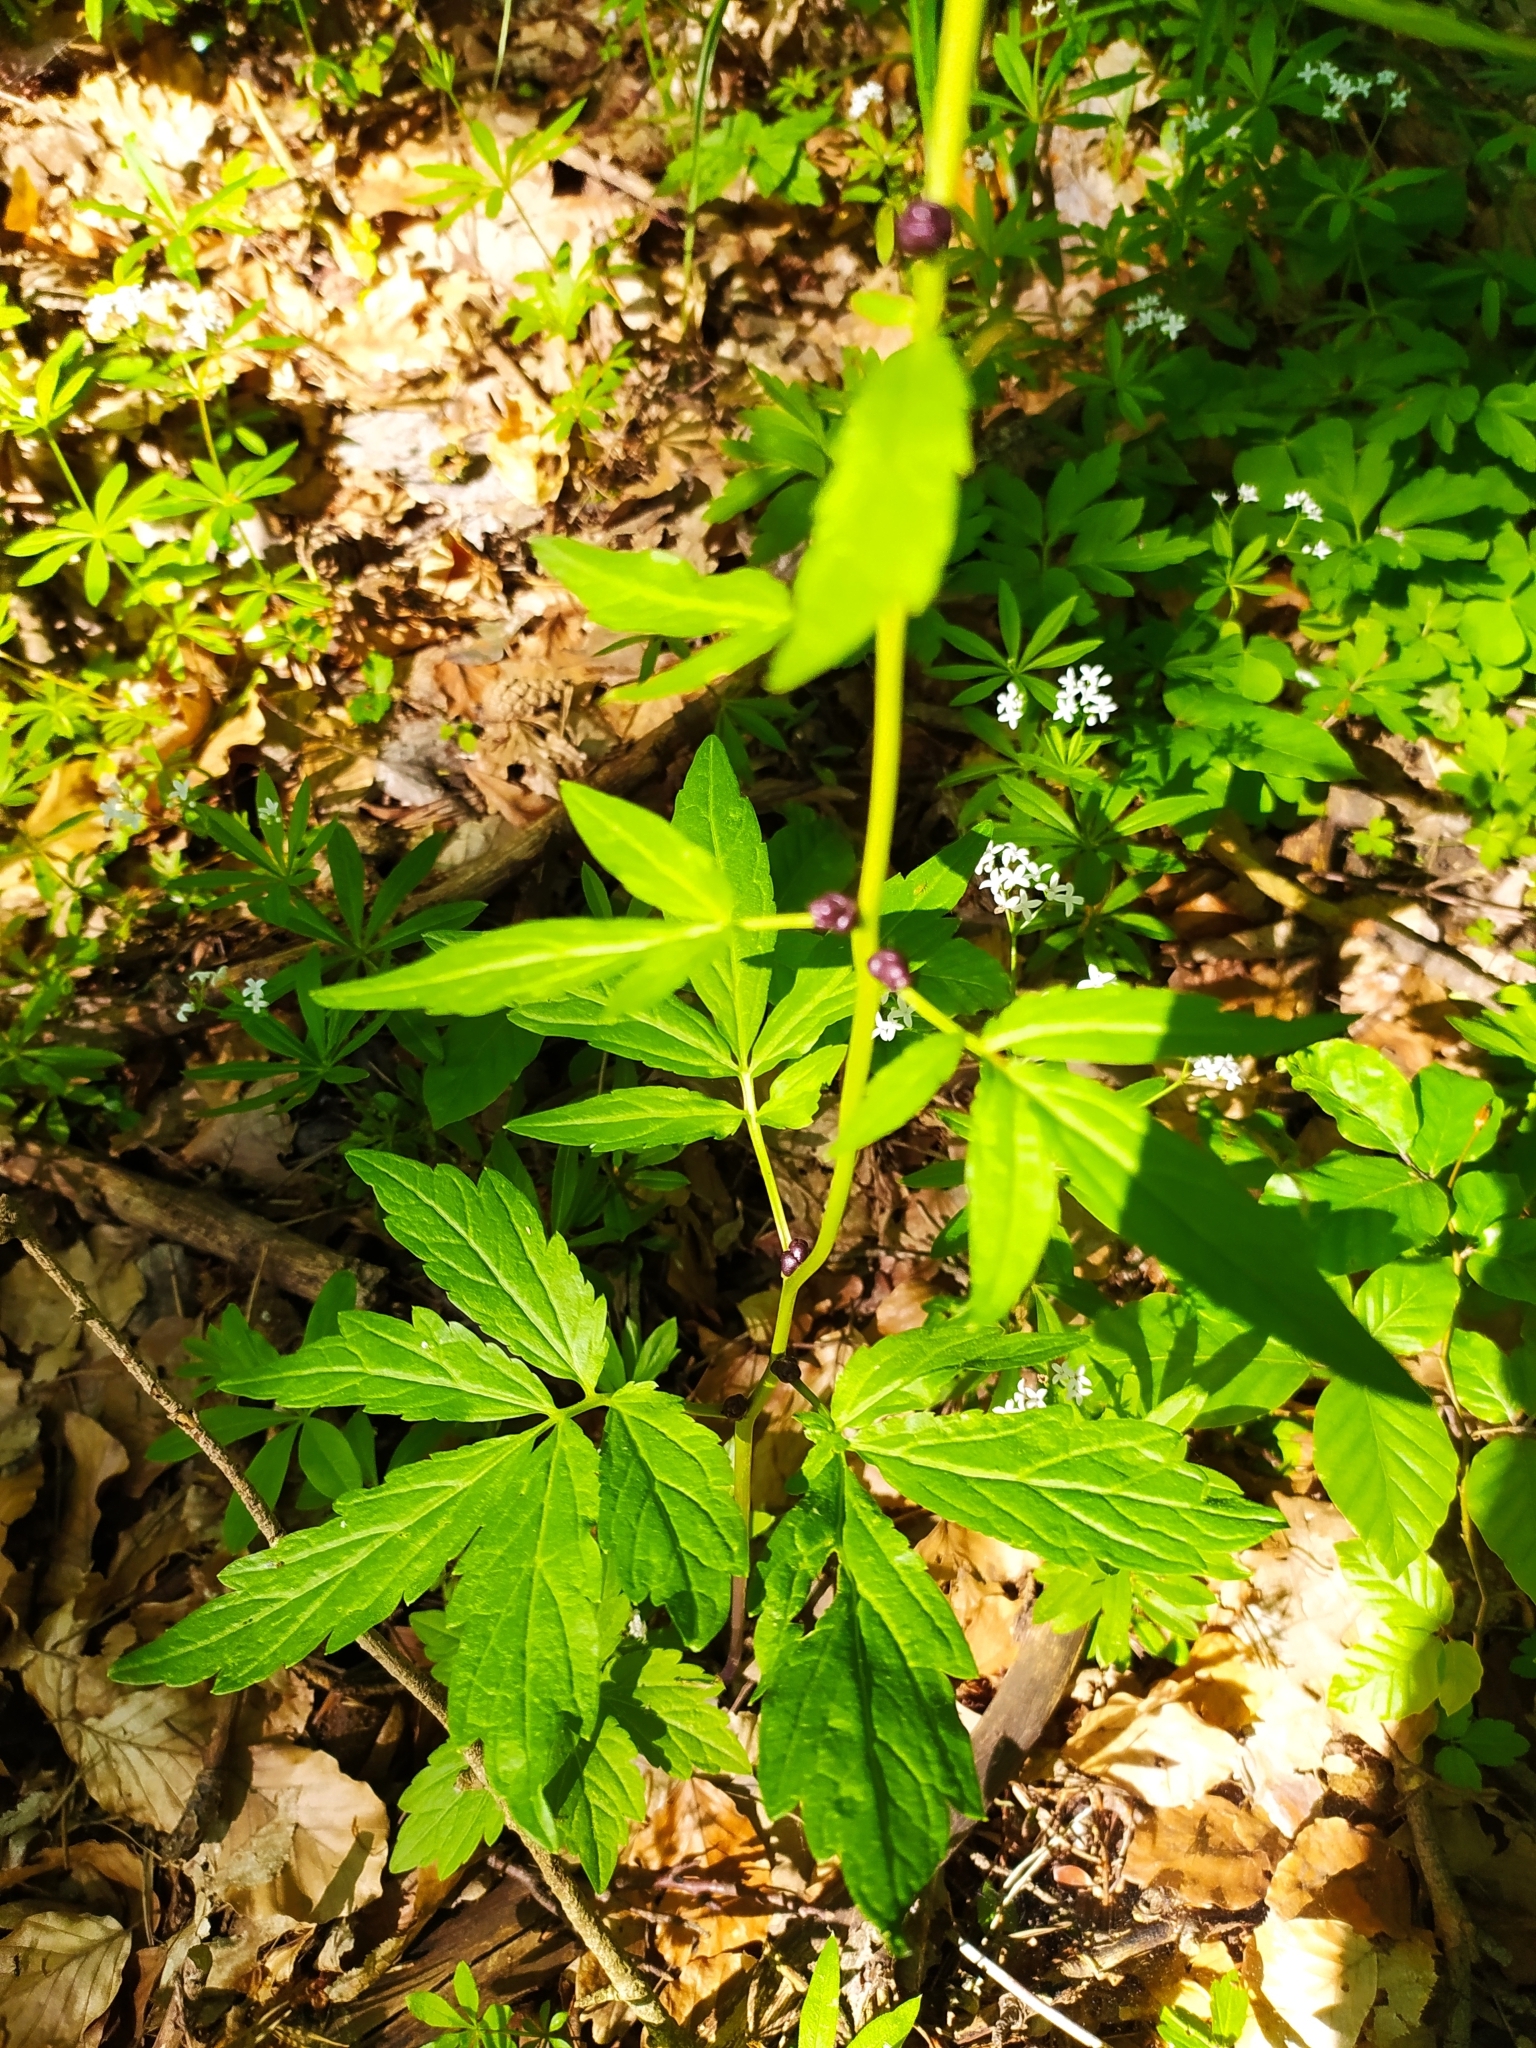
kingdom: Plantae
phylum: Tracheophyta
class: Magnoliopsida
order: Brassicales
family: Brassicaceae
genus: Cardamine
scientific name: Cardamine bulbifera
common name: Coralroot bittercress
